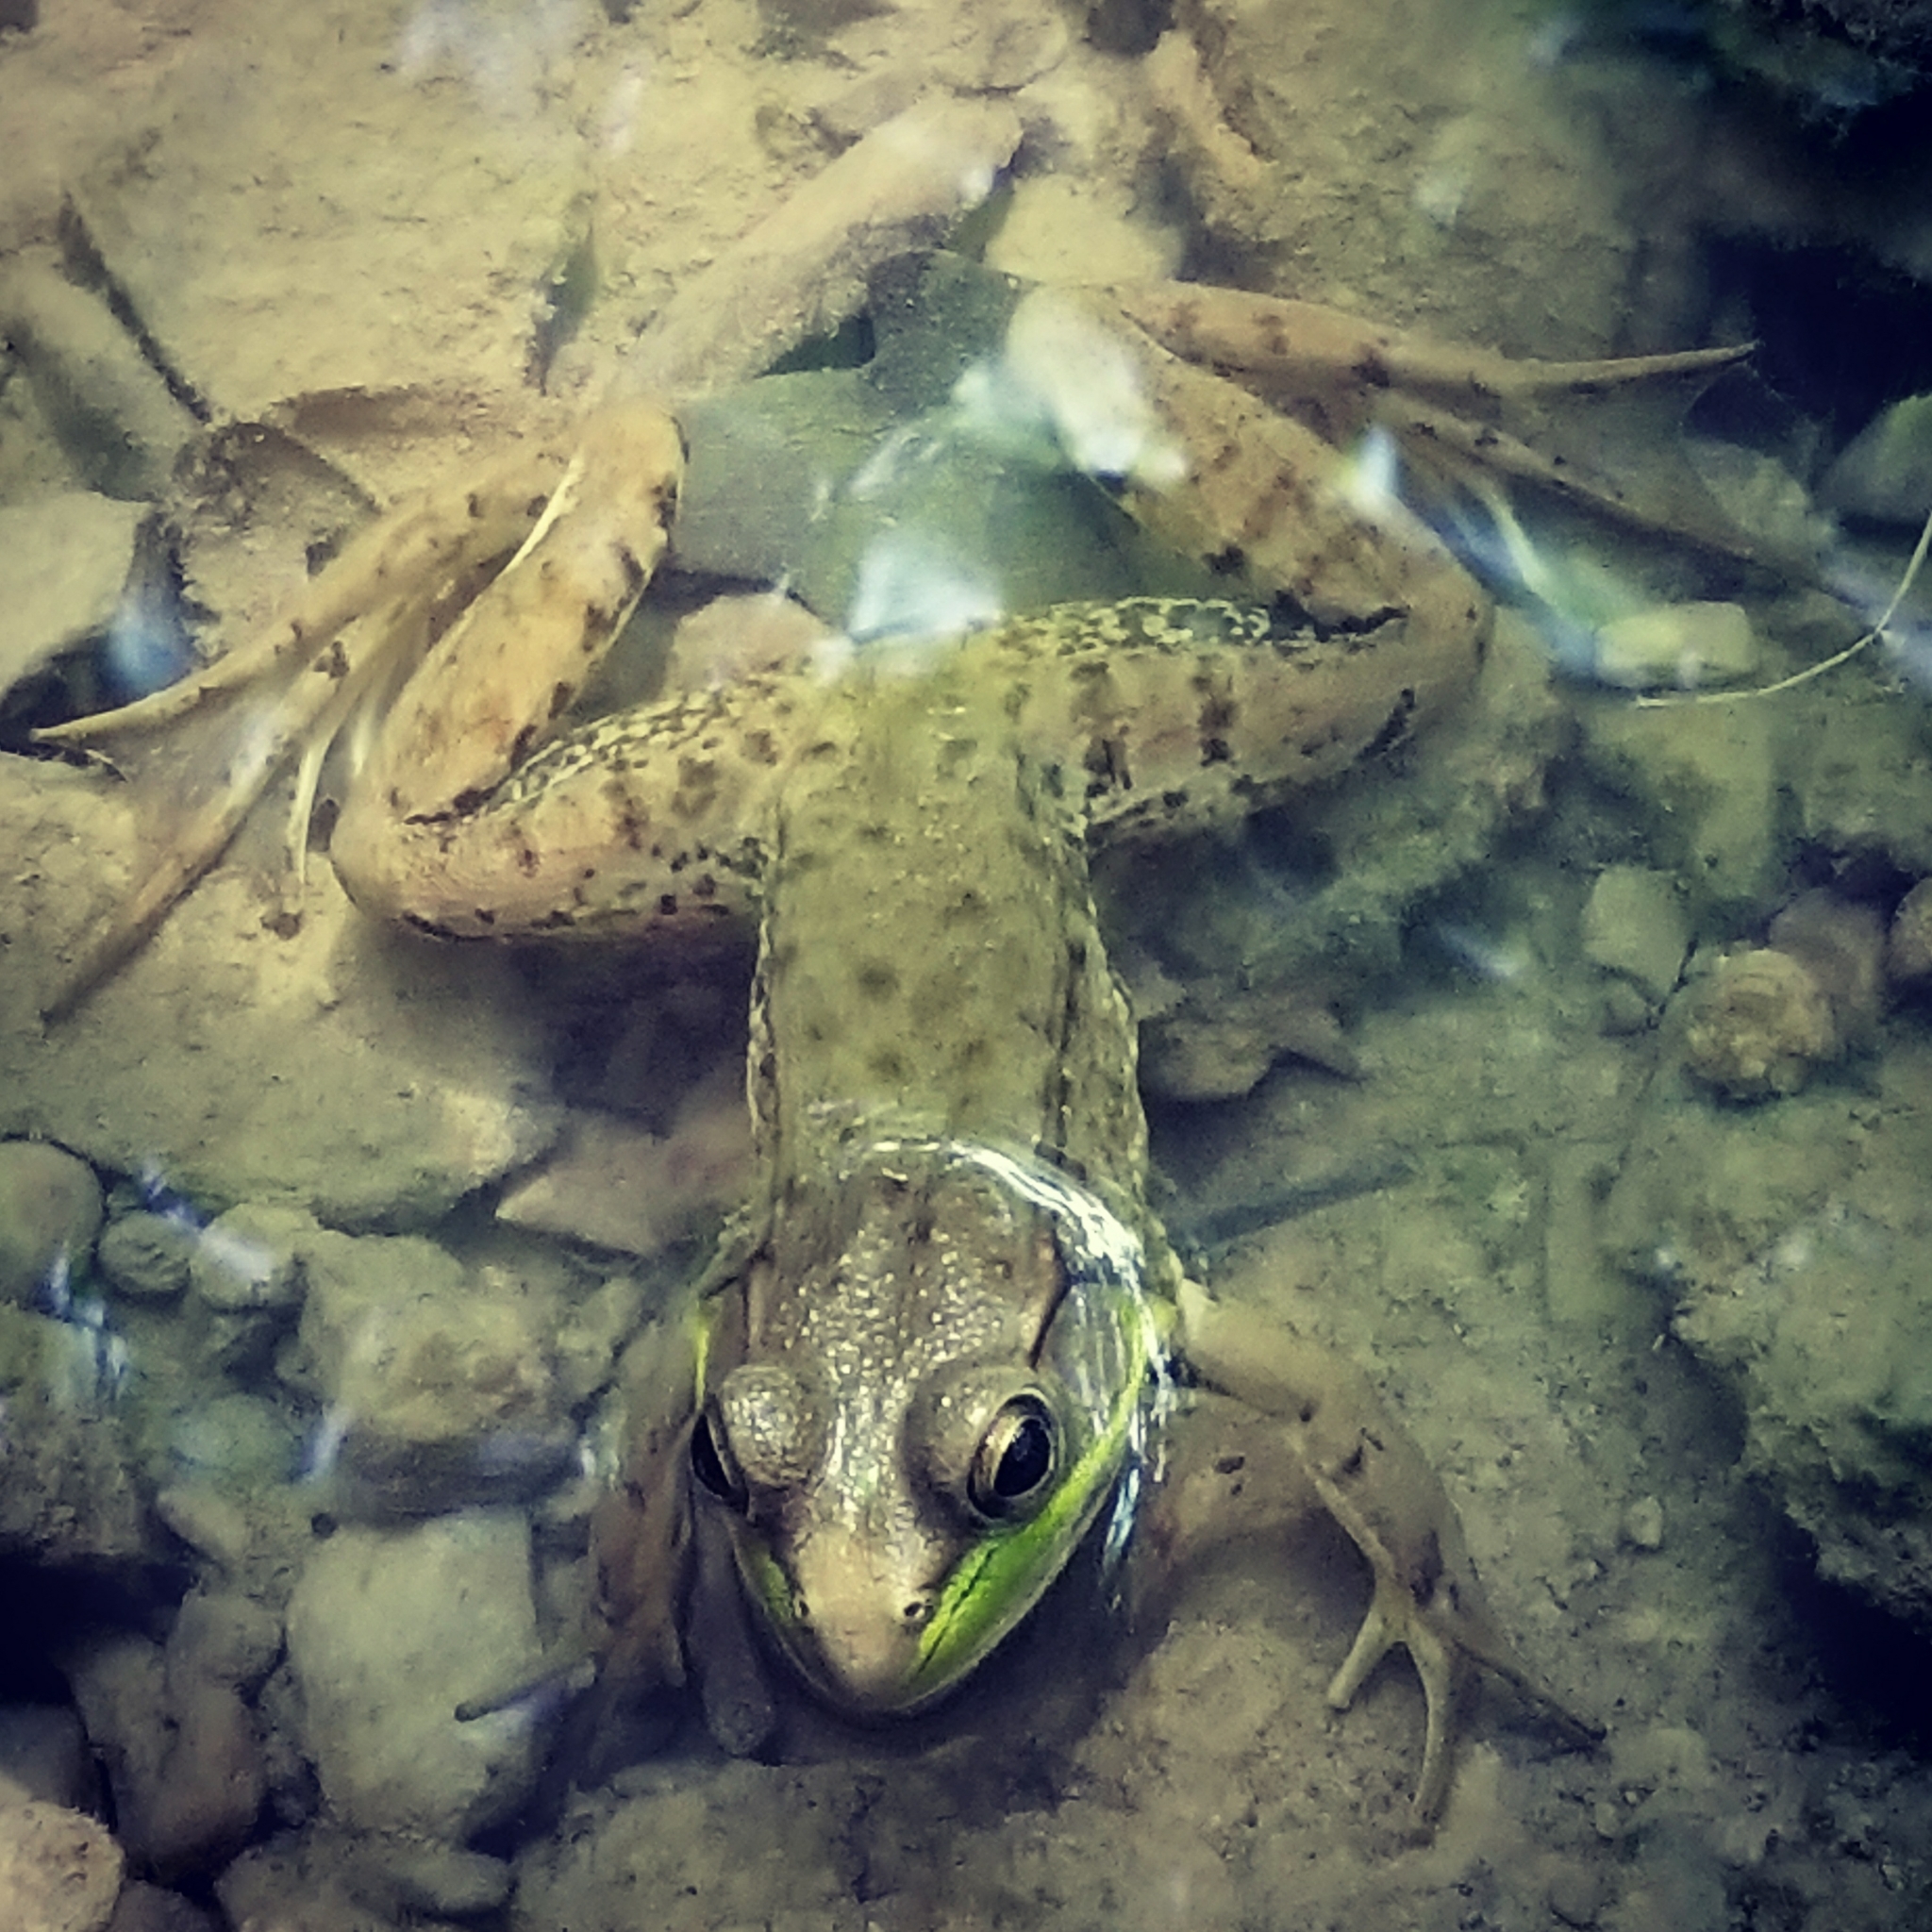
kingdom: Animalia
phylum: Chordata
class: Amphibia
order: Anura
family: Ranidae
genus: Lithobates
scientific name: Lithobates clamitans
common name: Green frog
